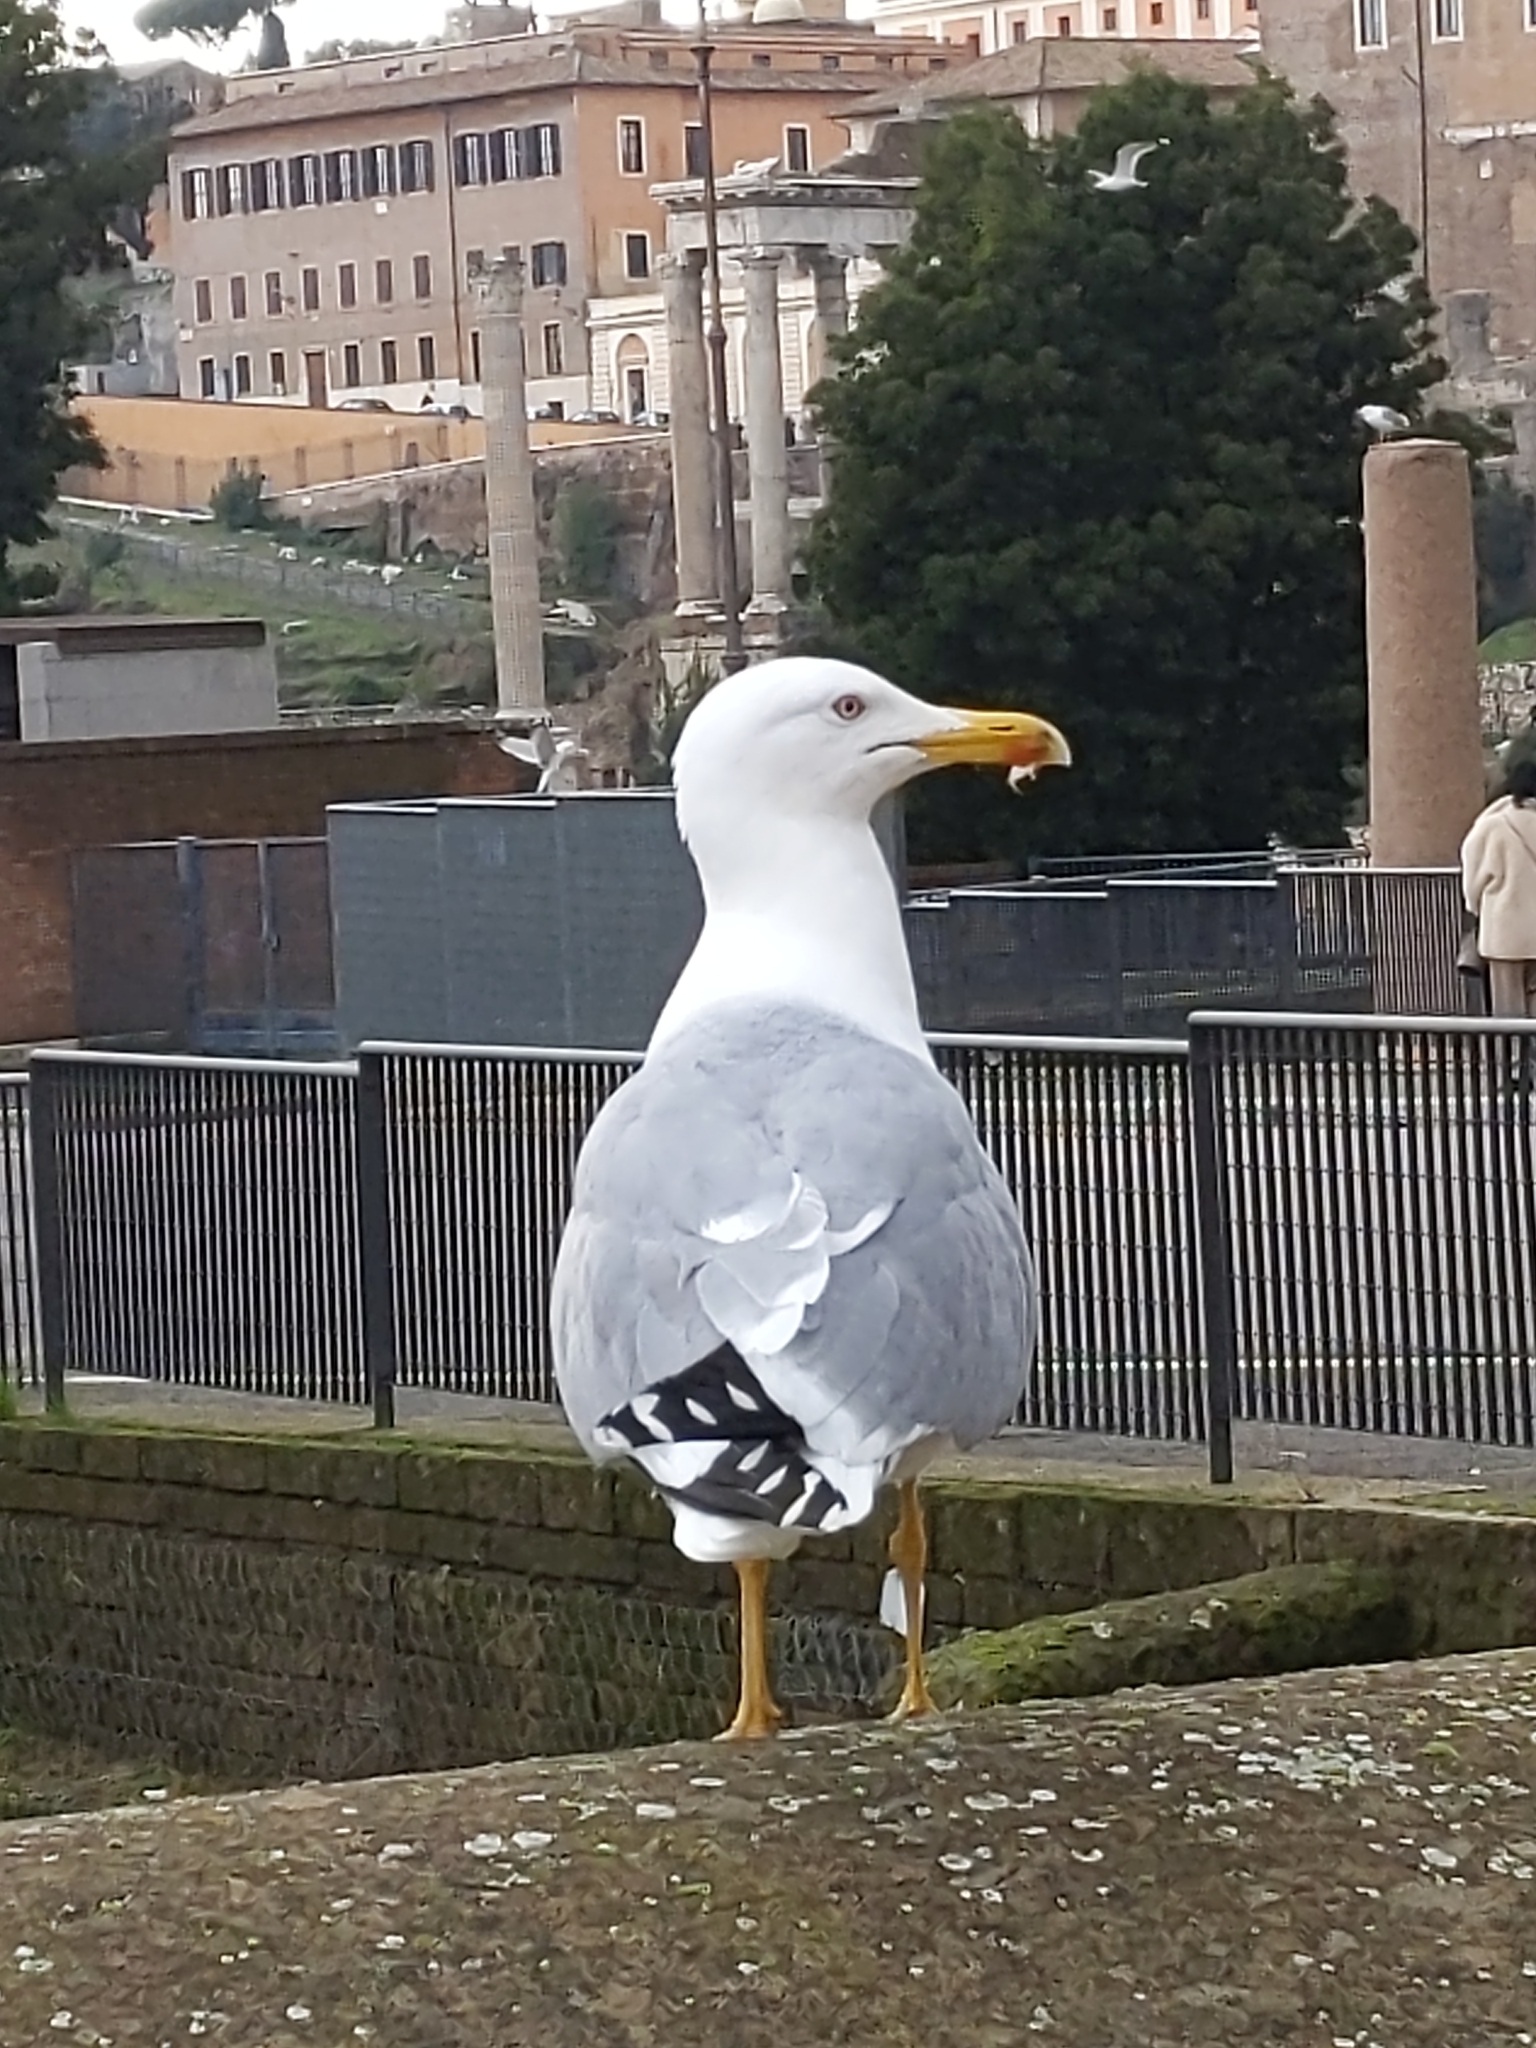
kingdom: Animalia
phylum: Chordata
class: Aves
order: Charadriiformes
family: Laridae
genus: Larus
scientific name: Larus michahellis
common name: Yellow-legged gull
